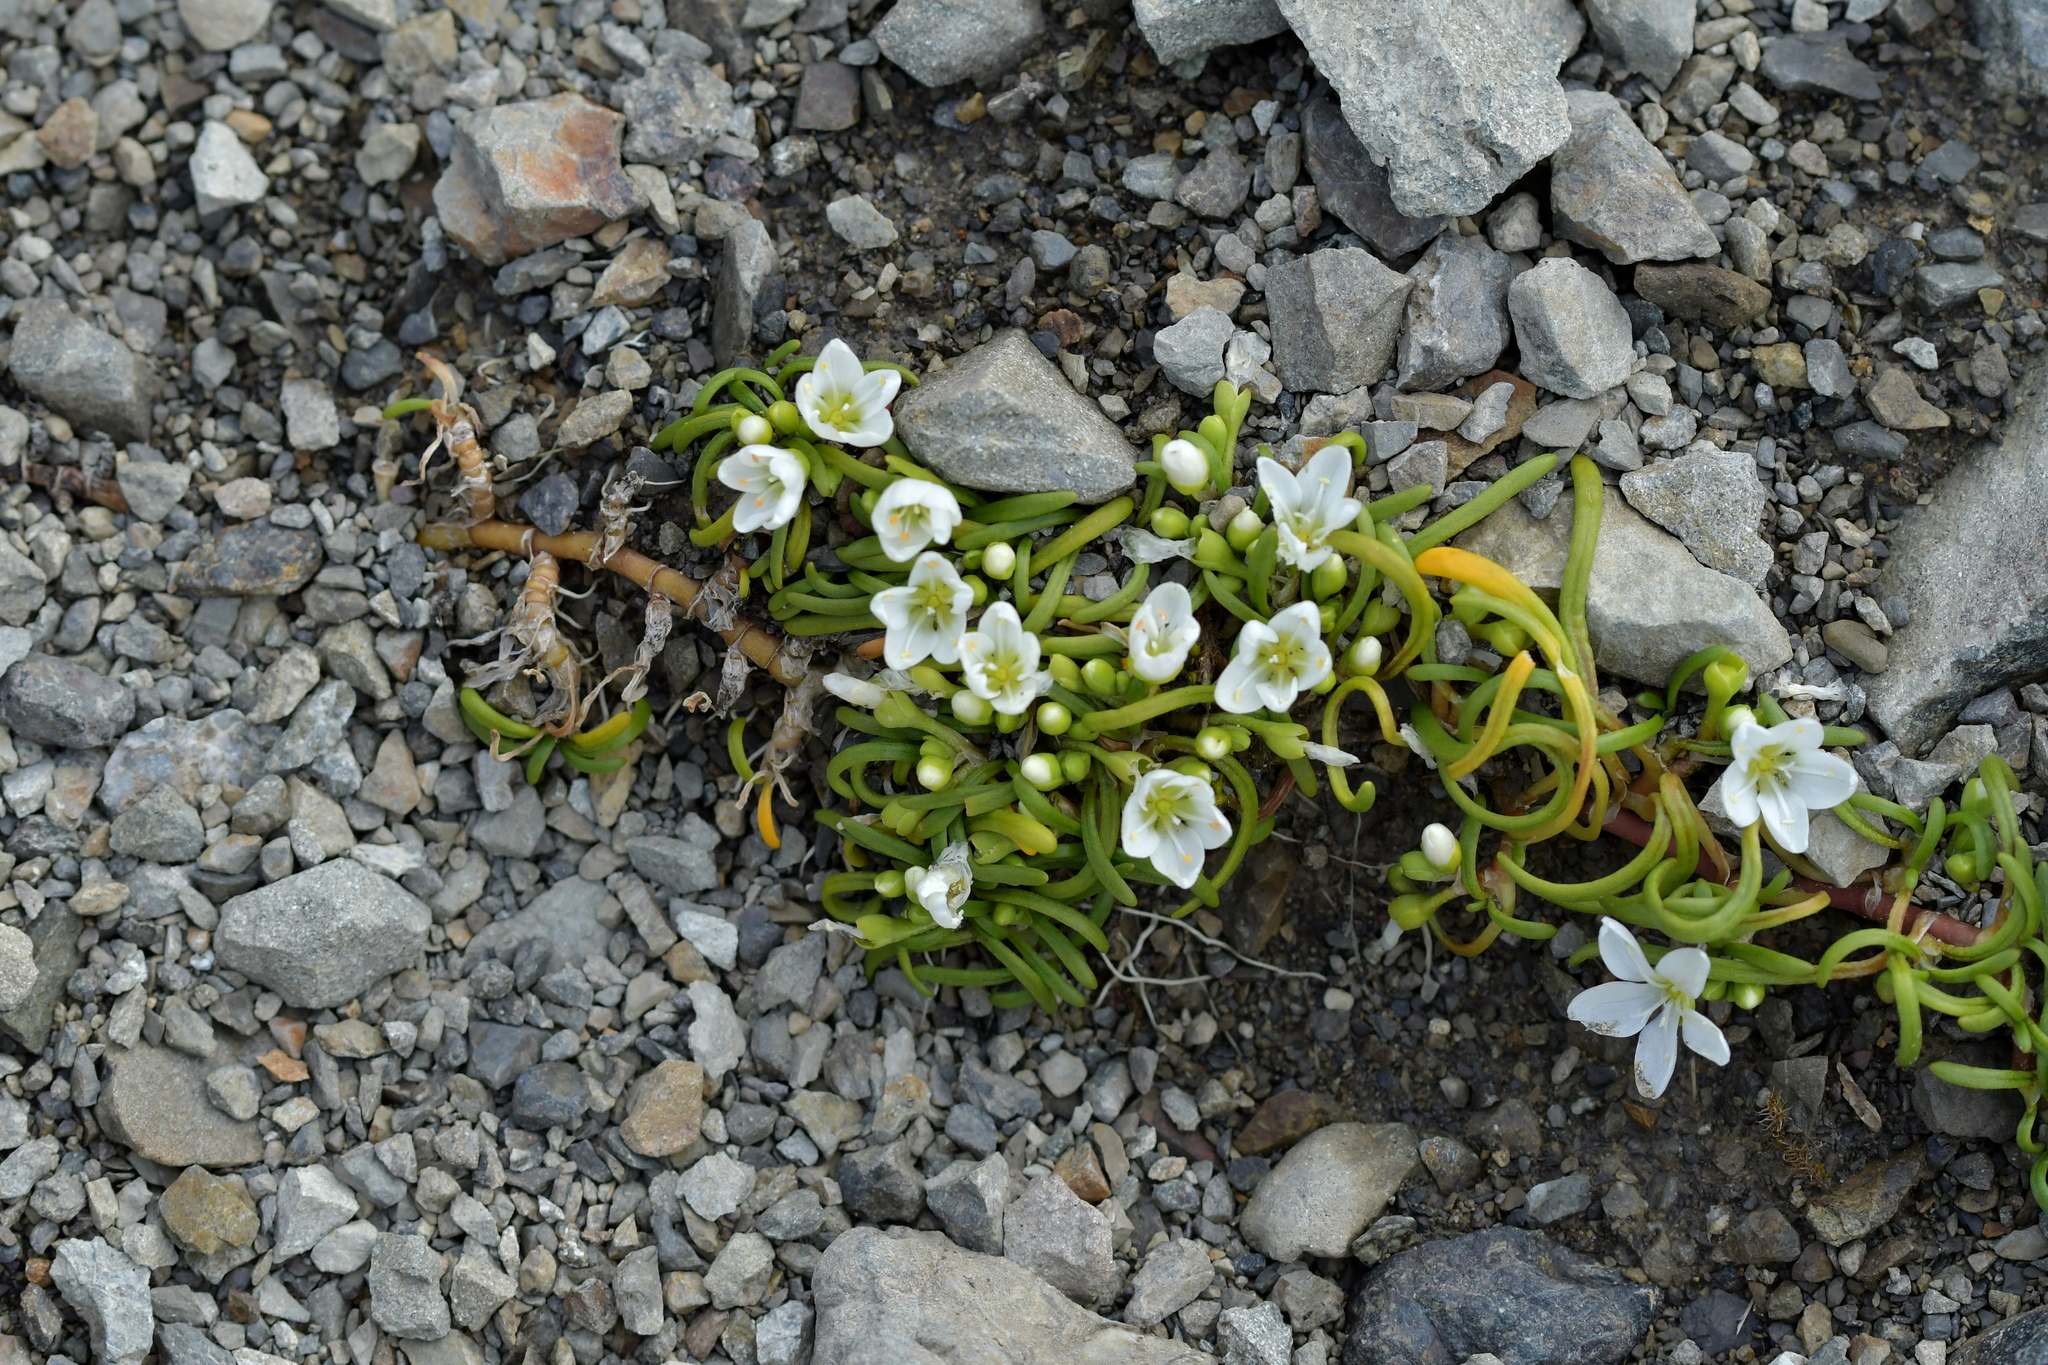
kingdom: Plantae
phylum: Tracheophyta
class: Magnoliopsida
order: Caryophyllales
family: Montiaceae
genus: Montia
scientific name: Montia calycina
